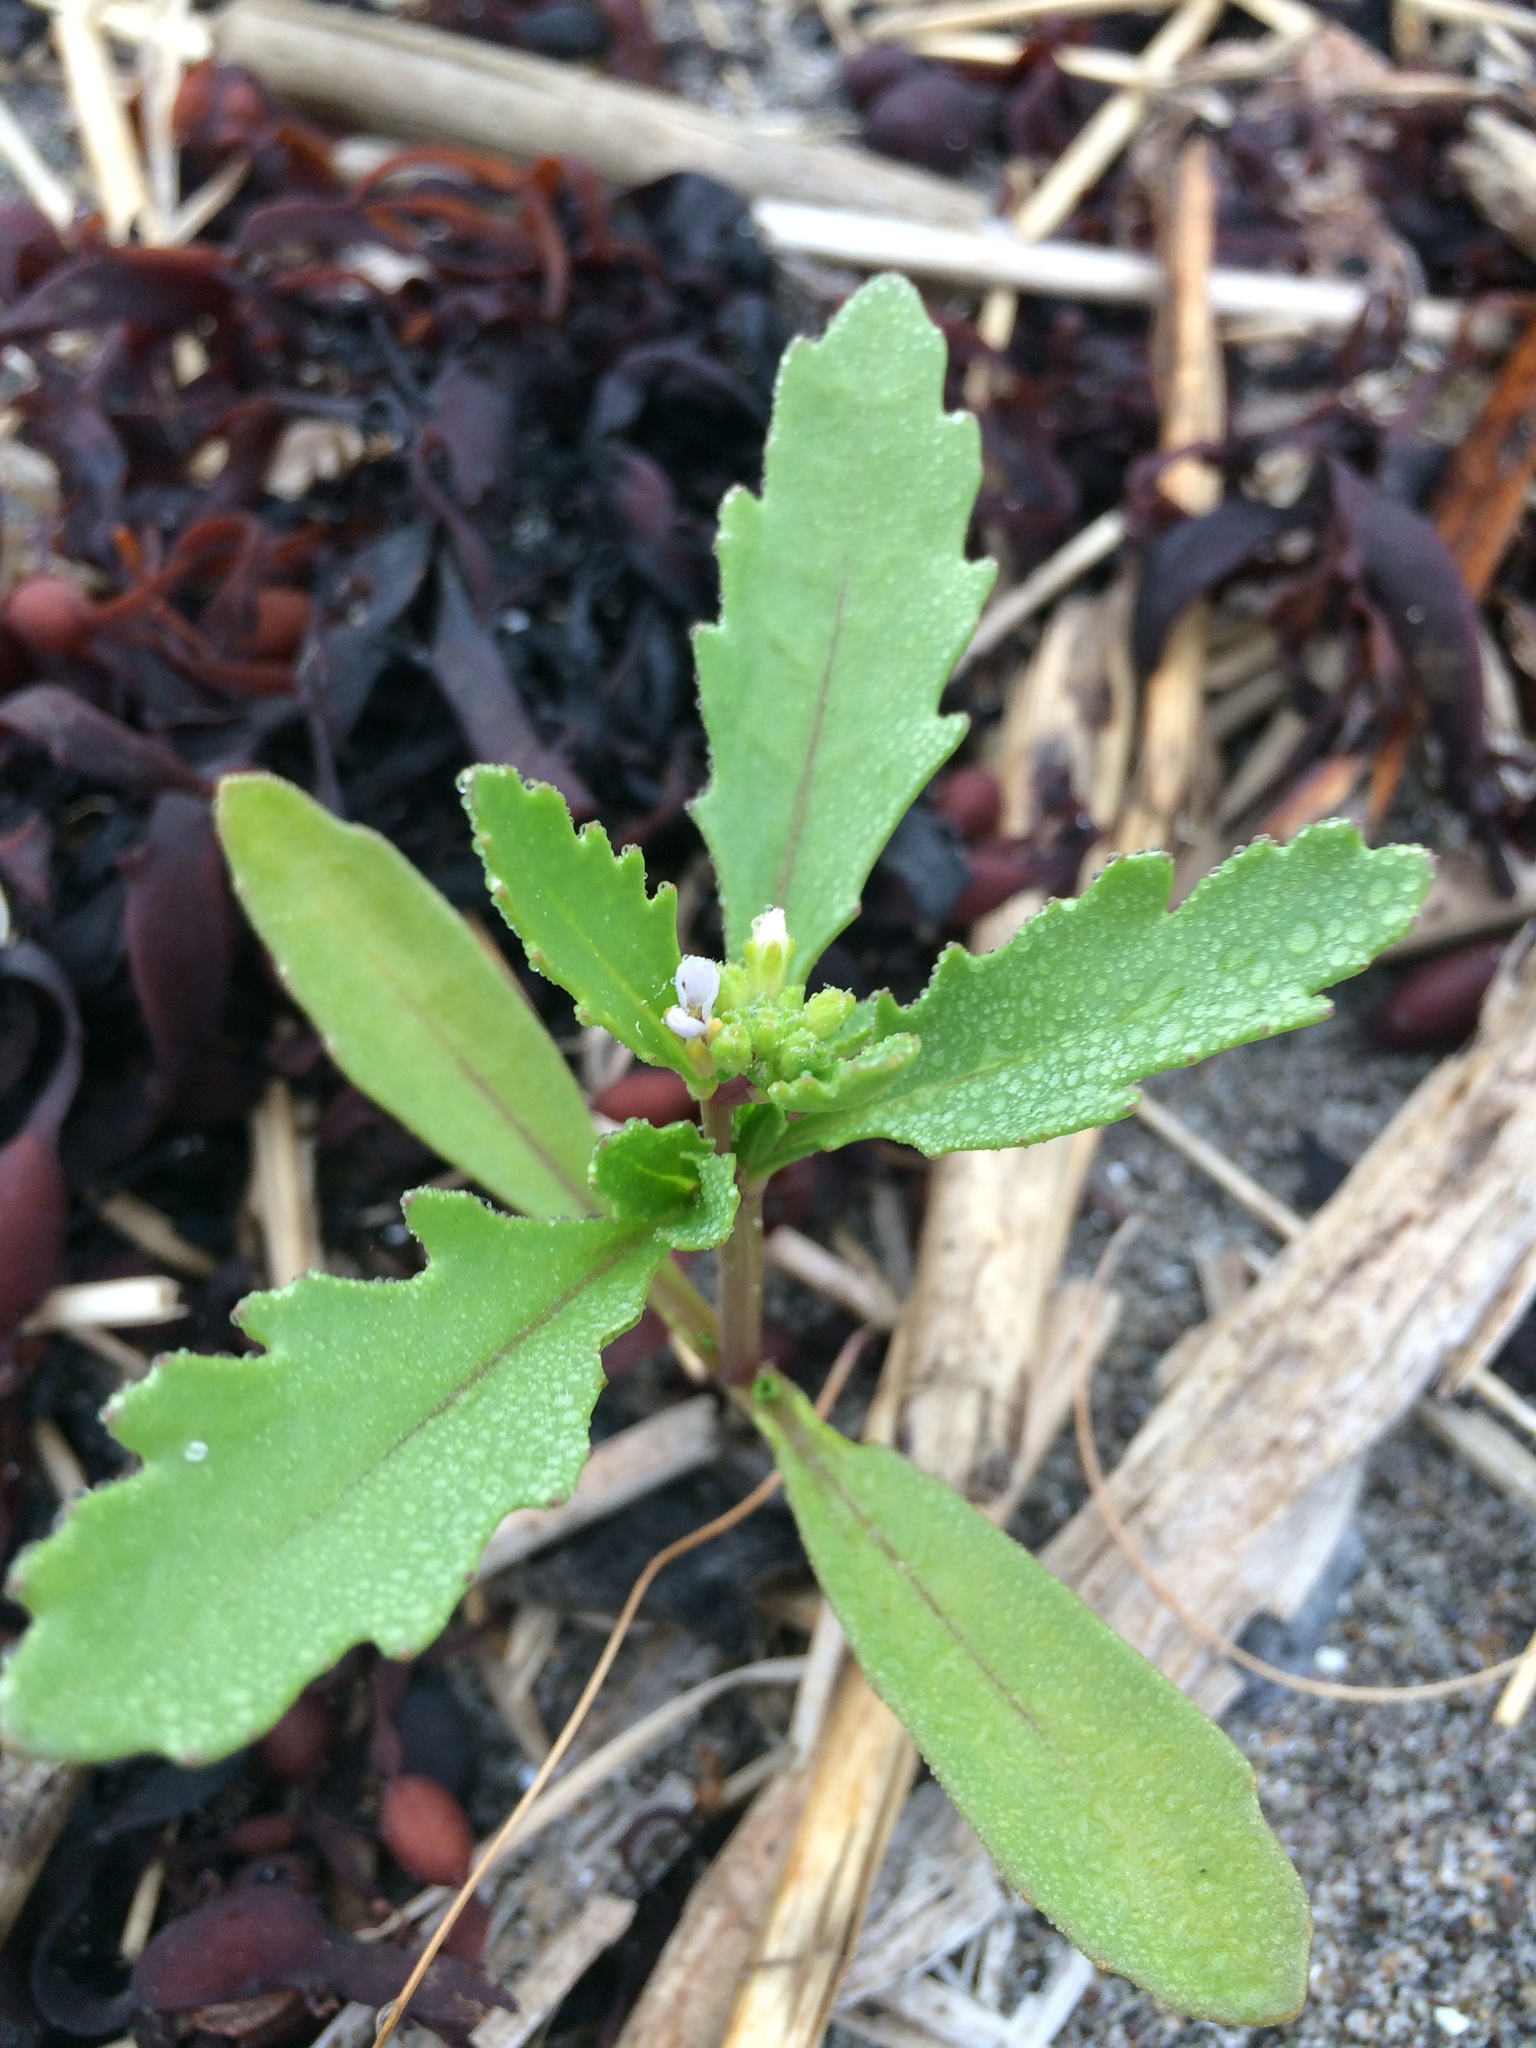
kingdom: Plantae
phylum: Tracheophyta
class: Magnoliopsida
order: Brassicales
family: Brassicaceae
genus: Cakile
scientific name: Cakile edentula
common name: American sea rocket
